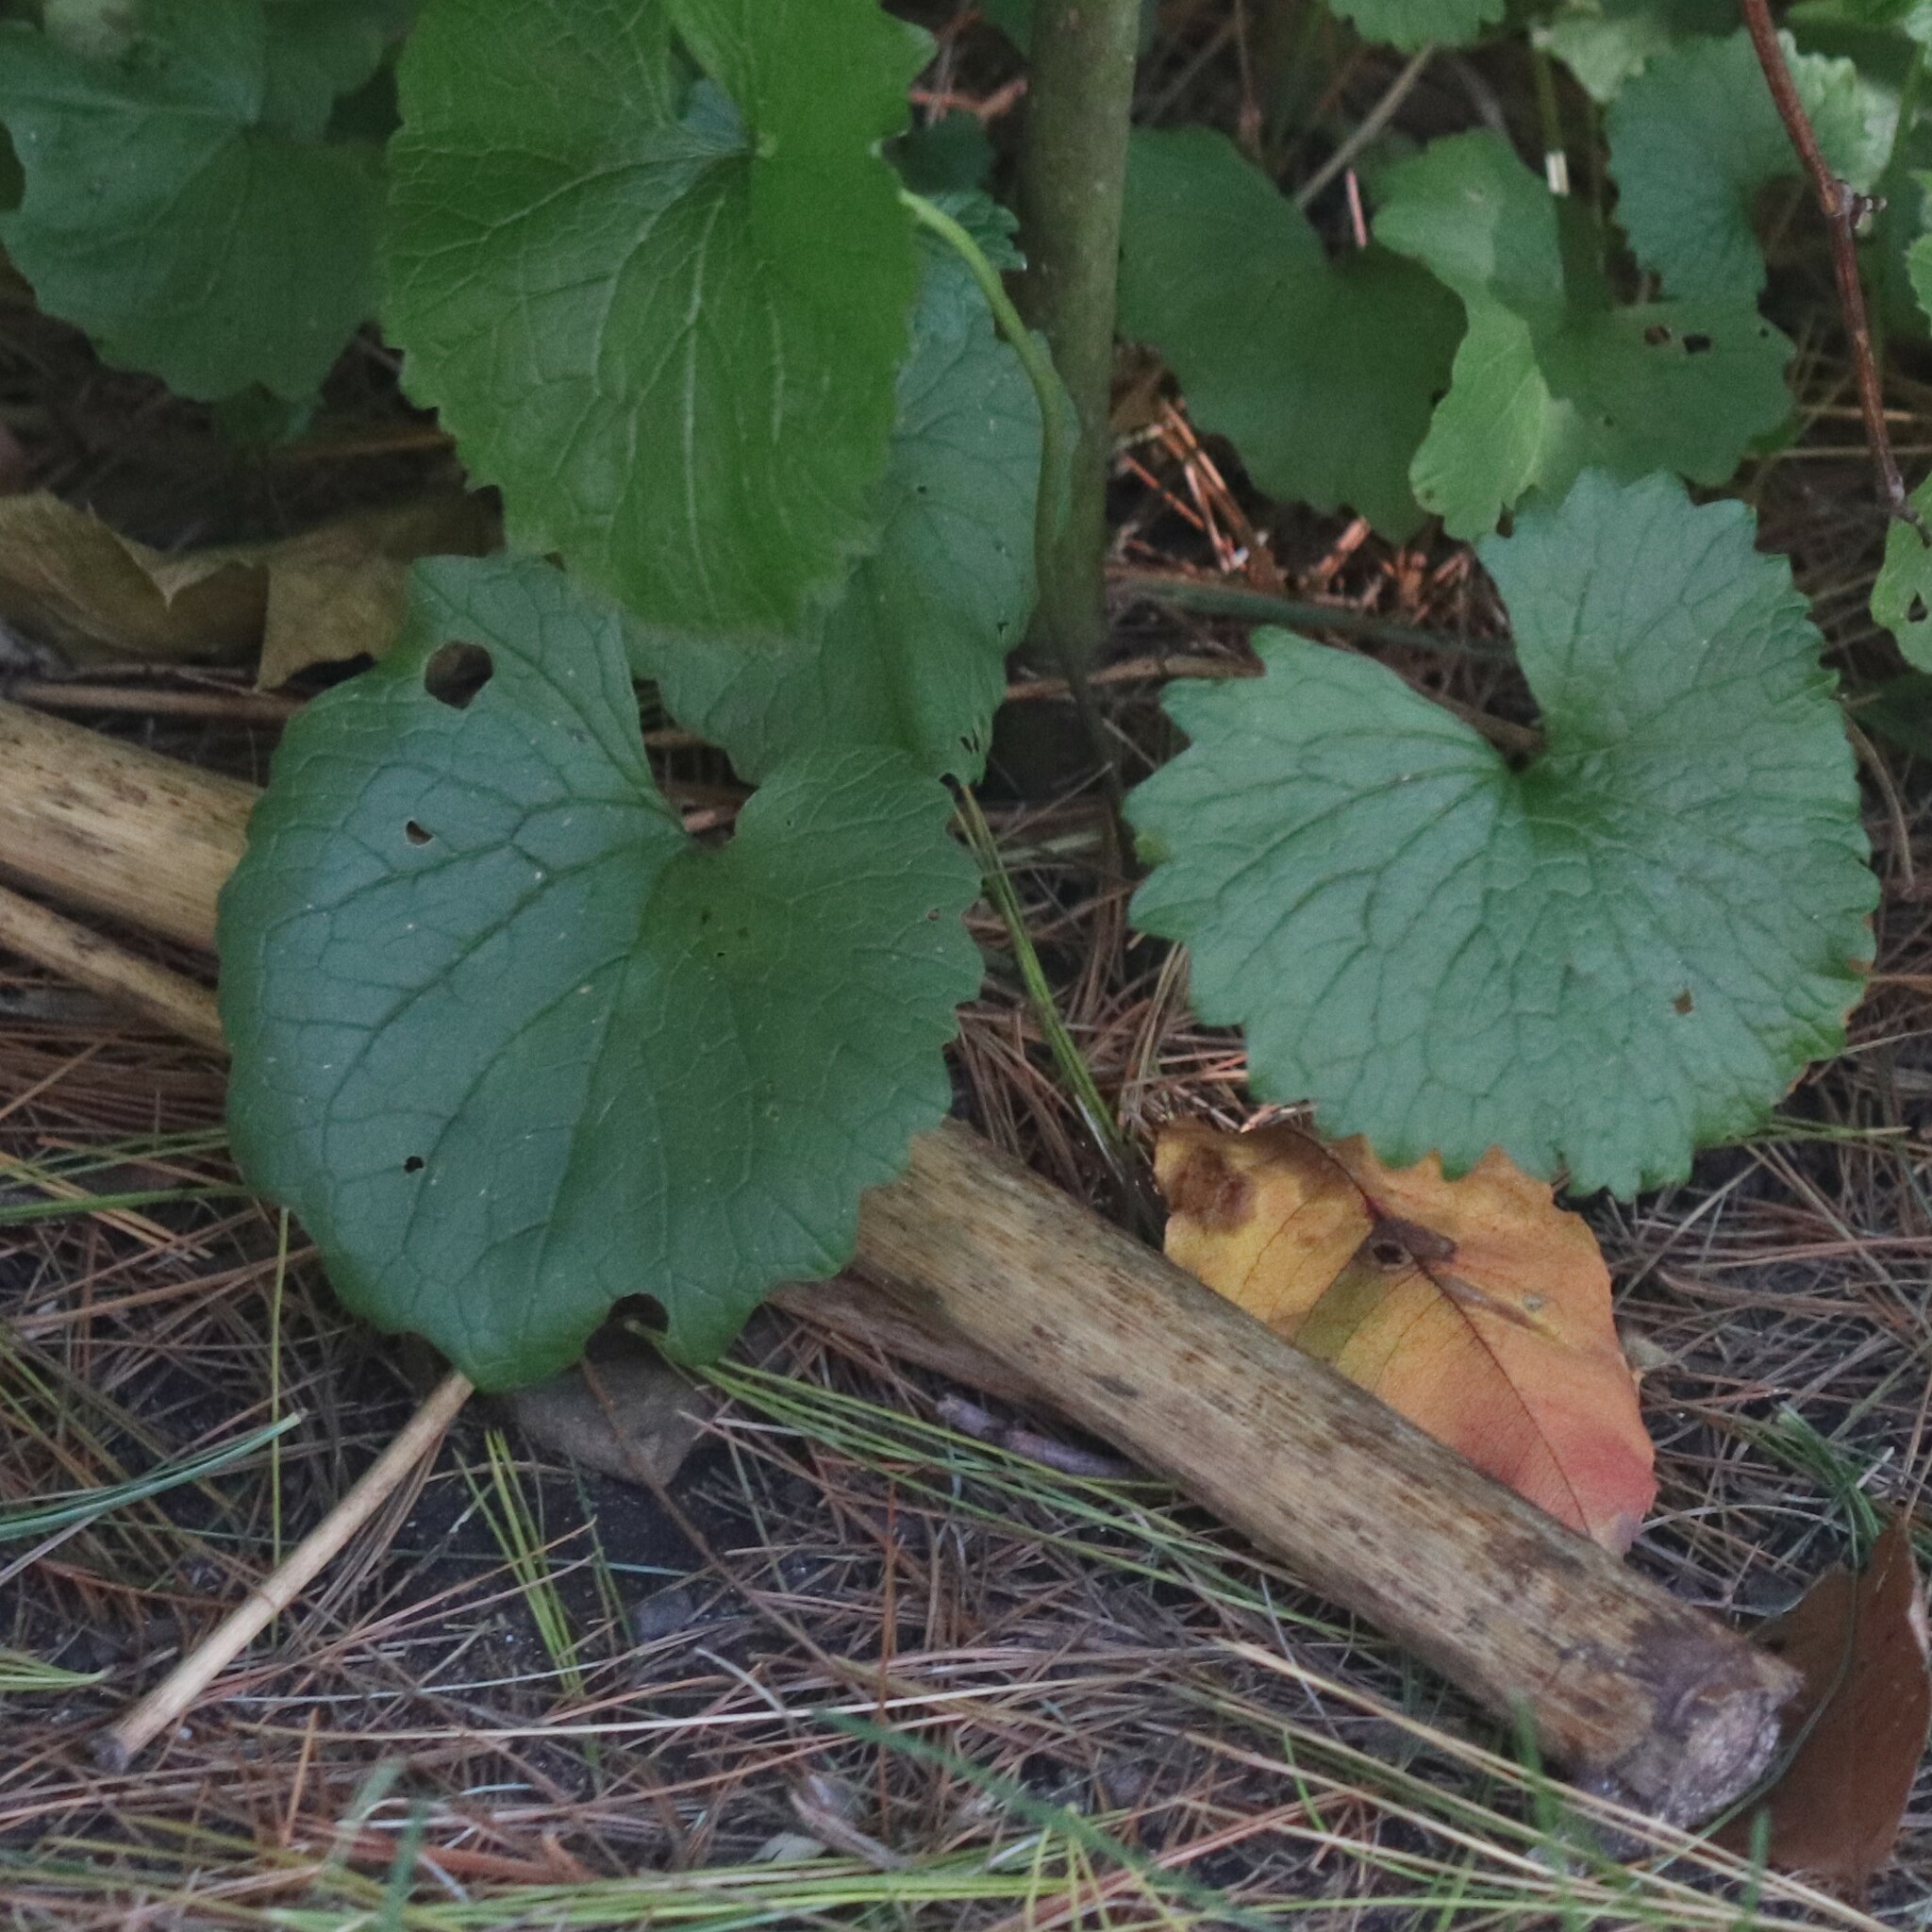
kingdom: Plantae
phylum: Tracheophyta
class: Magnoliopsida
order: Brassicales
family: Brassicaceae
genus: Alliaria
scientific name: Alliaria petiolata
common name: Garlic mustard
